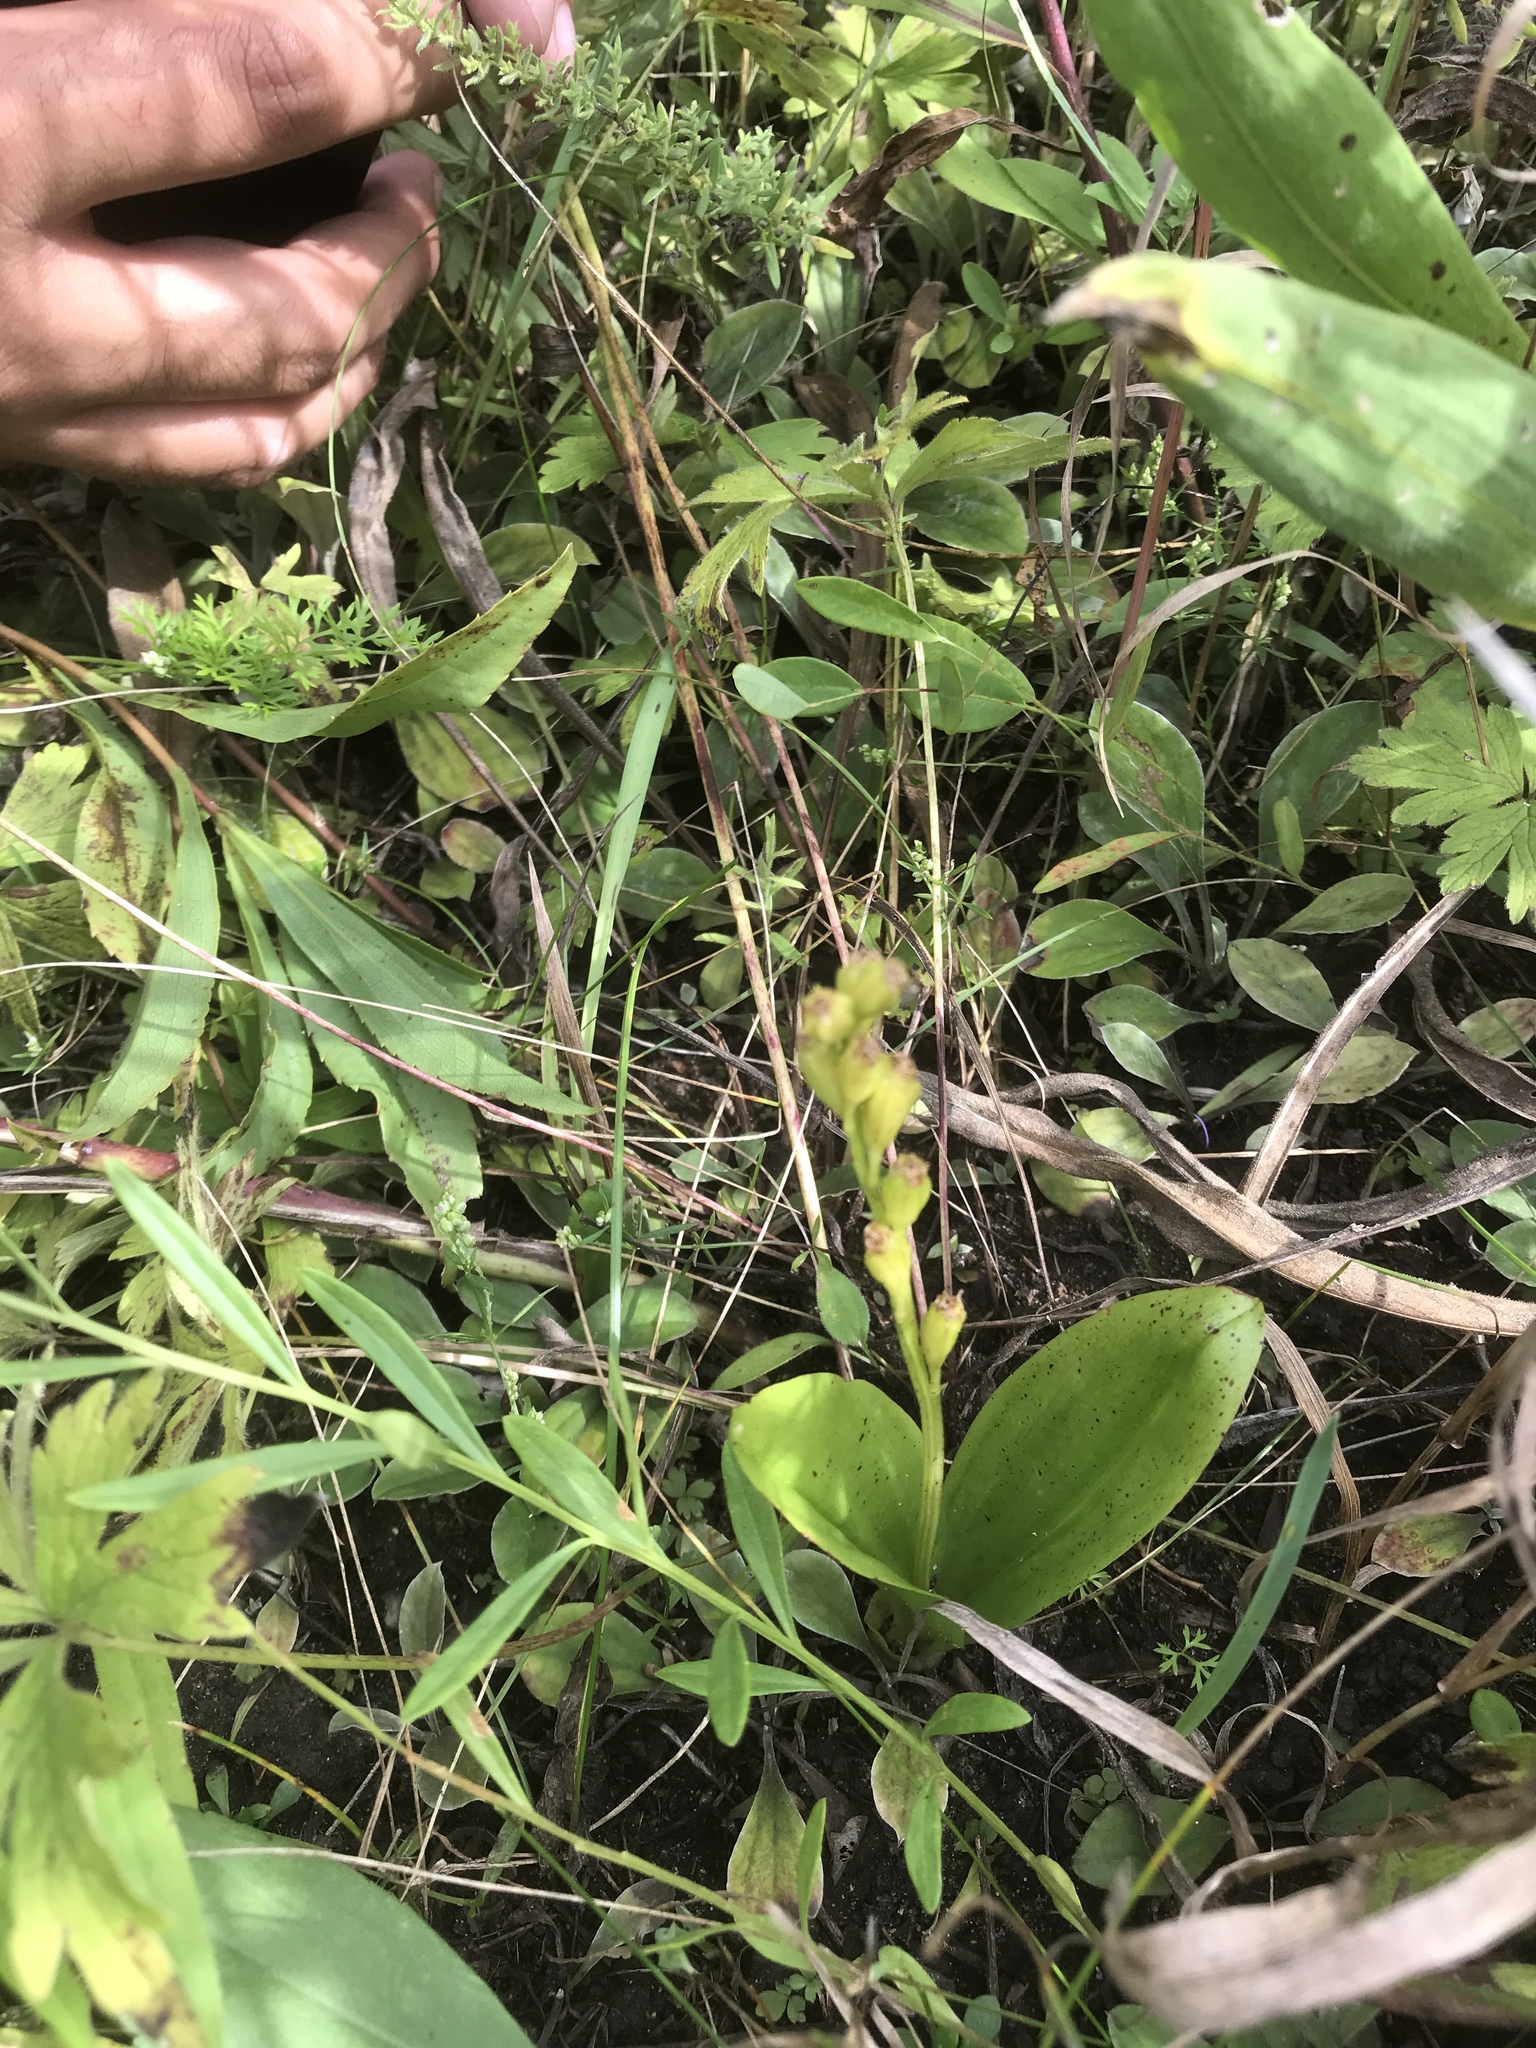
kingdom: Animalia
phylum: Arthropoda
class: Insecta
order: Coleoptera
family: Curculionidae
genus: Liparis
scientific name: Liparis loeselii
